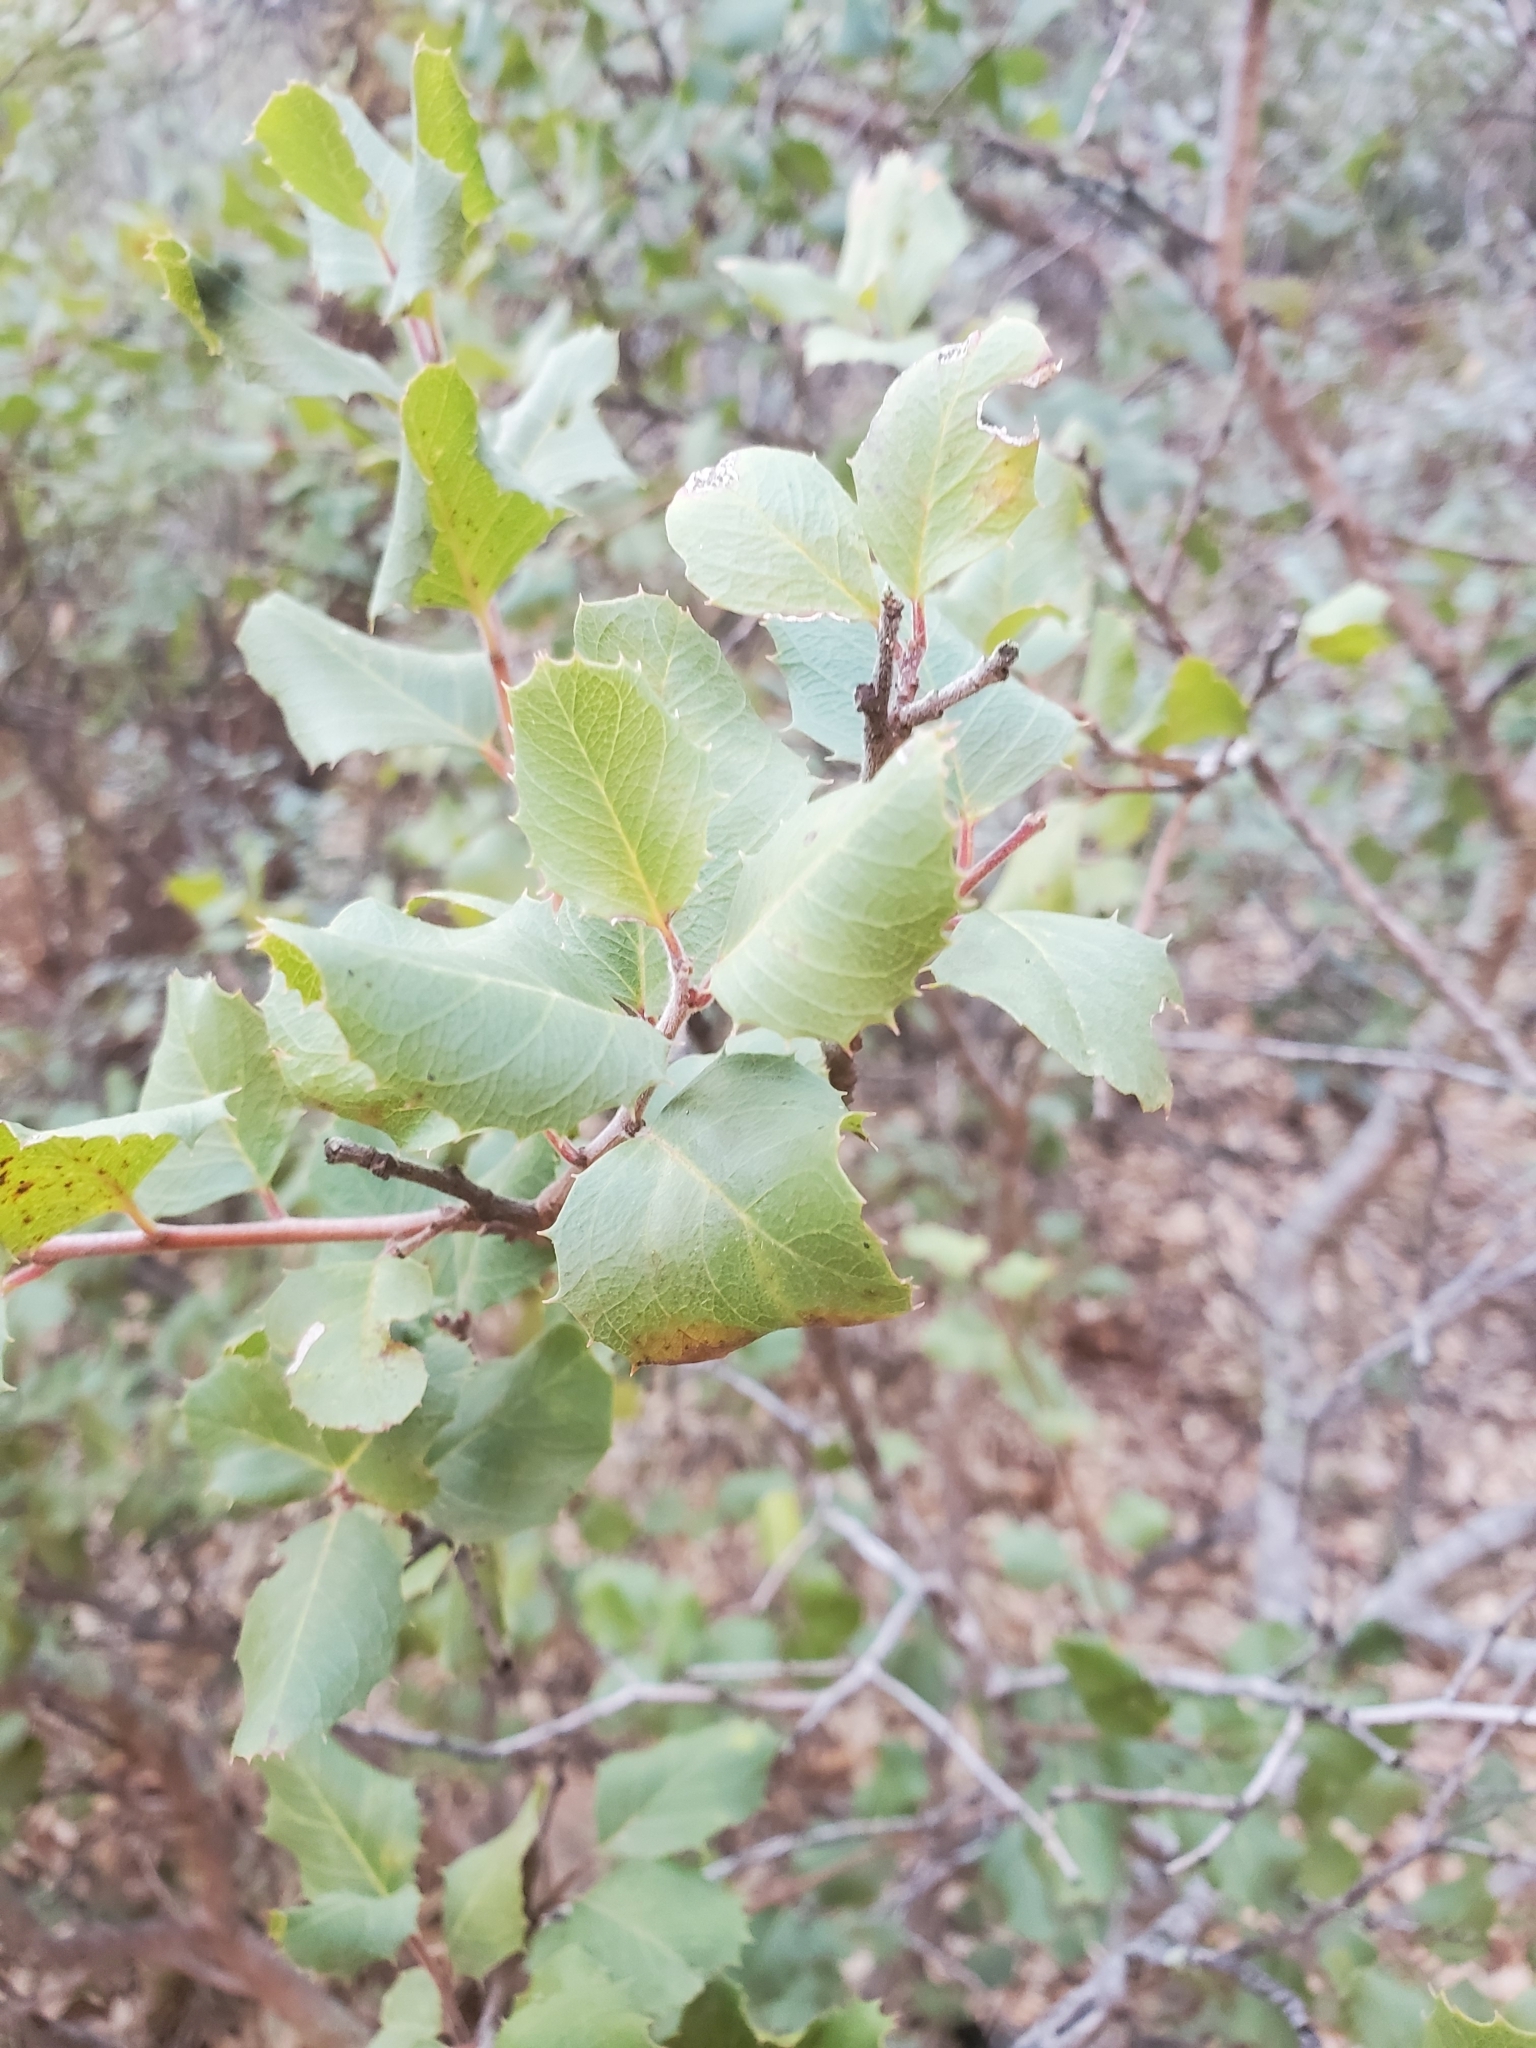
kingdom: Plantae
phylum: Tracheophyta
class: Magnoliopsida
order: Rosales
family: Rhamnaceae
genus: Endotropis
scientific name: Endotropis crocea
